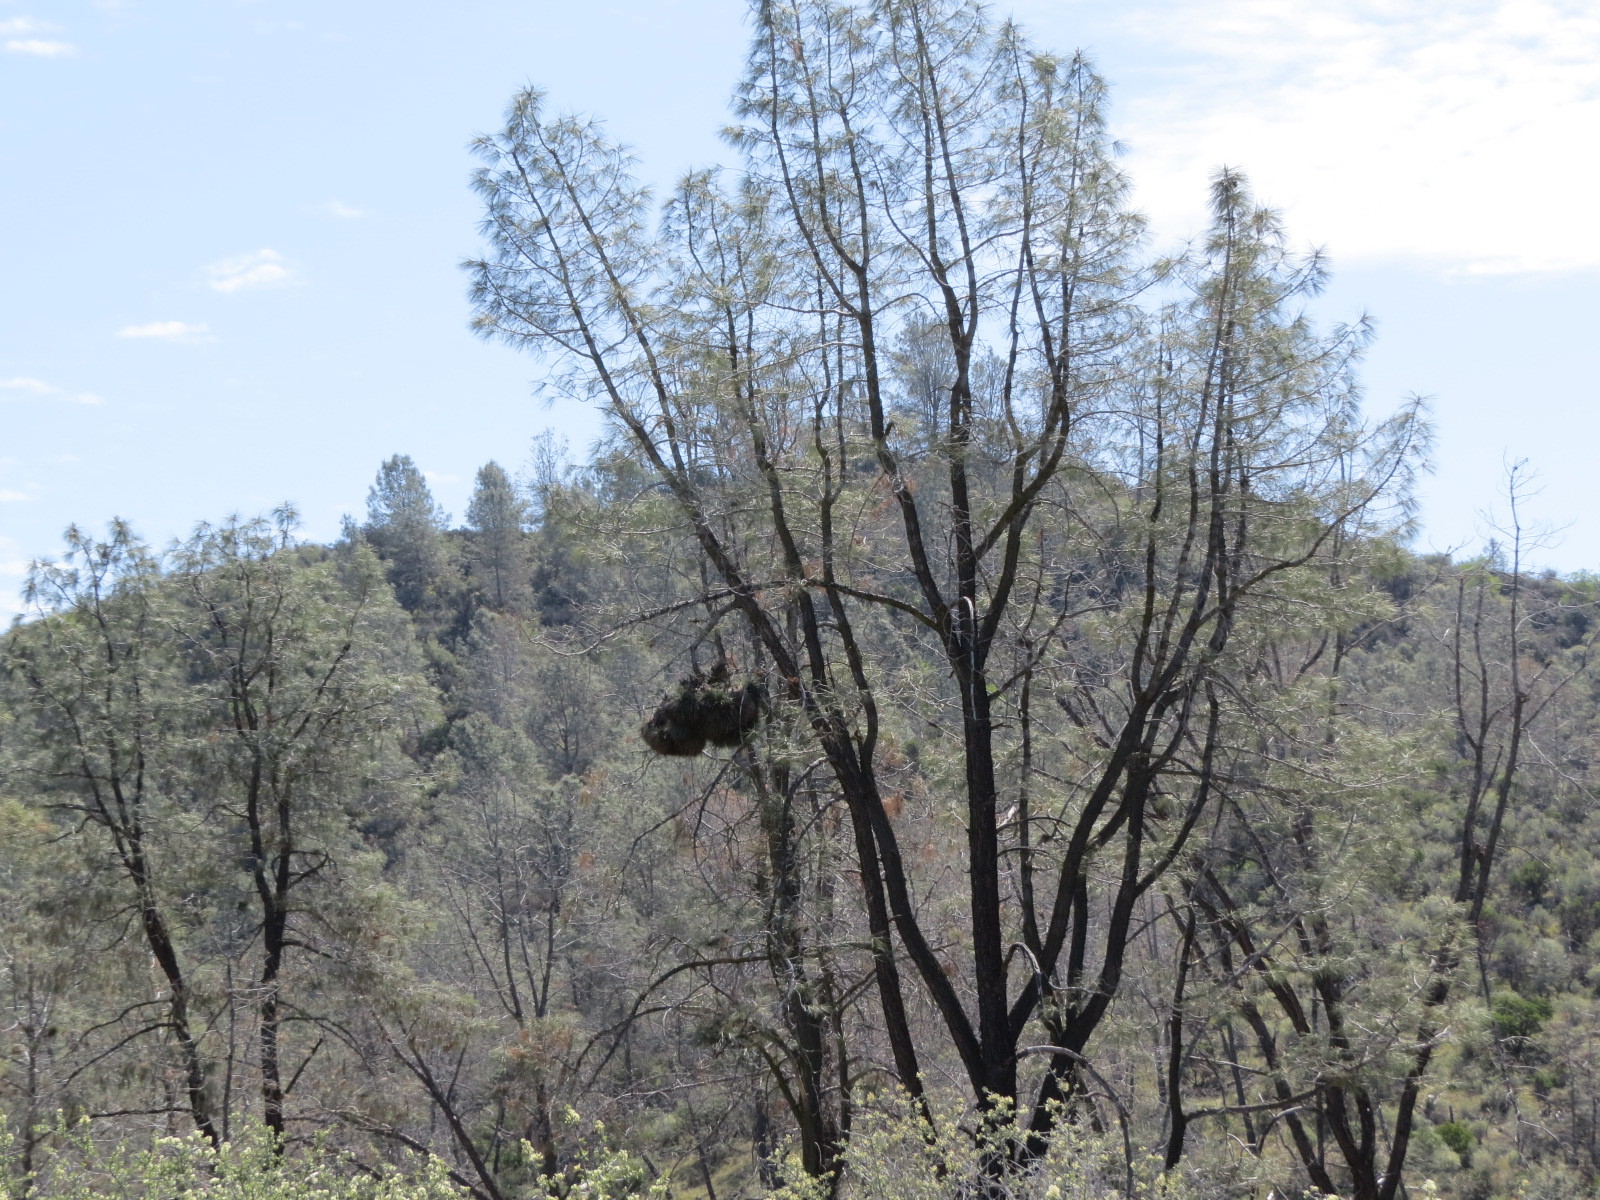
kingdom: Plantae
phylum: Tracheophyta
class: Pinopsida
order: Pinales
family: Pinaceae
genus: Pinus
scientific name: Pinus sabiniana
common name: Bull pine
